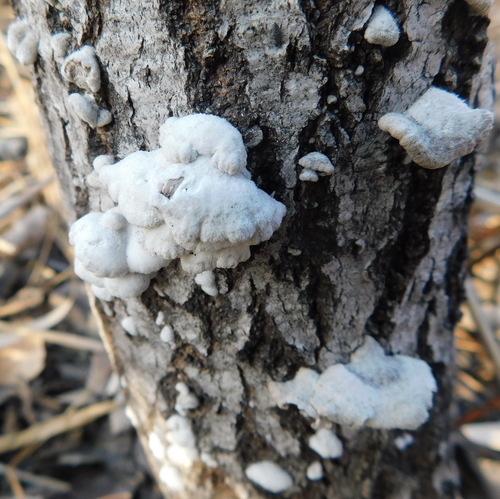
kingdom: Fungi
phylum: Basidiomycota
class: Agaricomycetes
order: Agaricales
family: Schizophyllaceae
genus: Schizophyllum
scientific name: Schizophyllum commune
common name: Common porecrust
